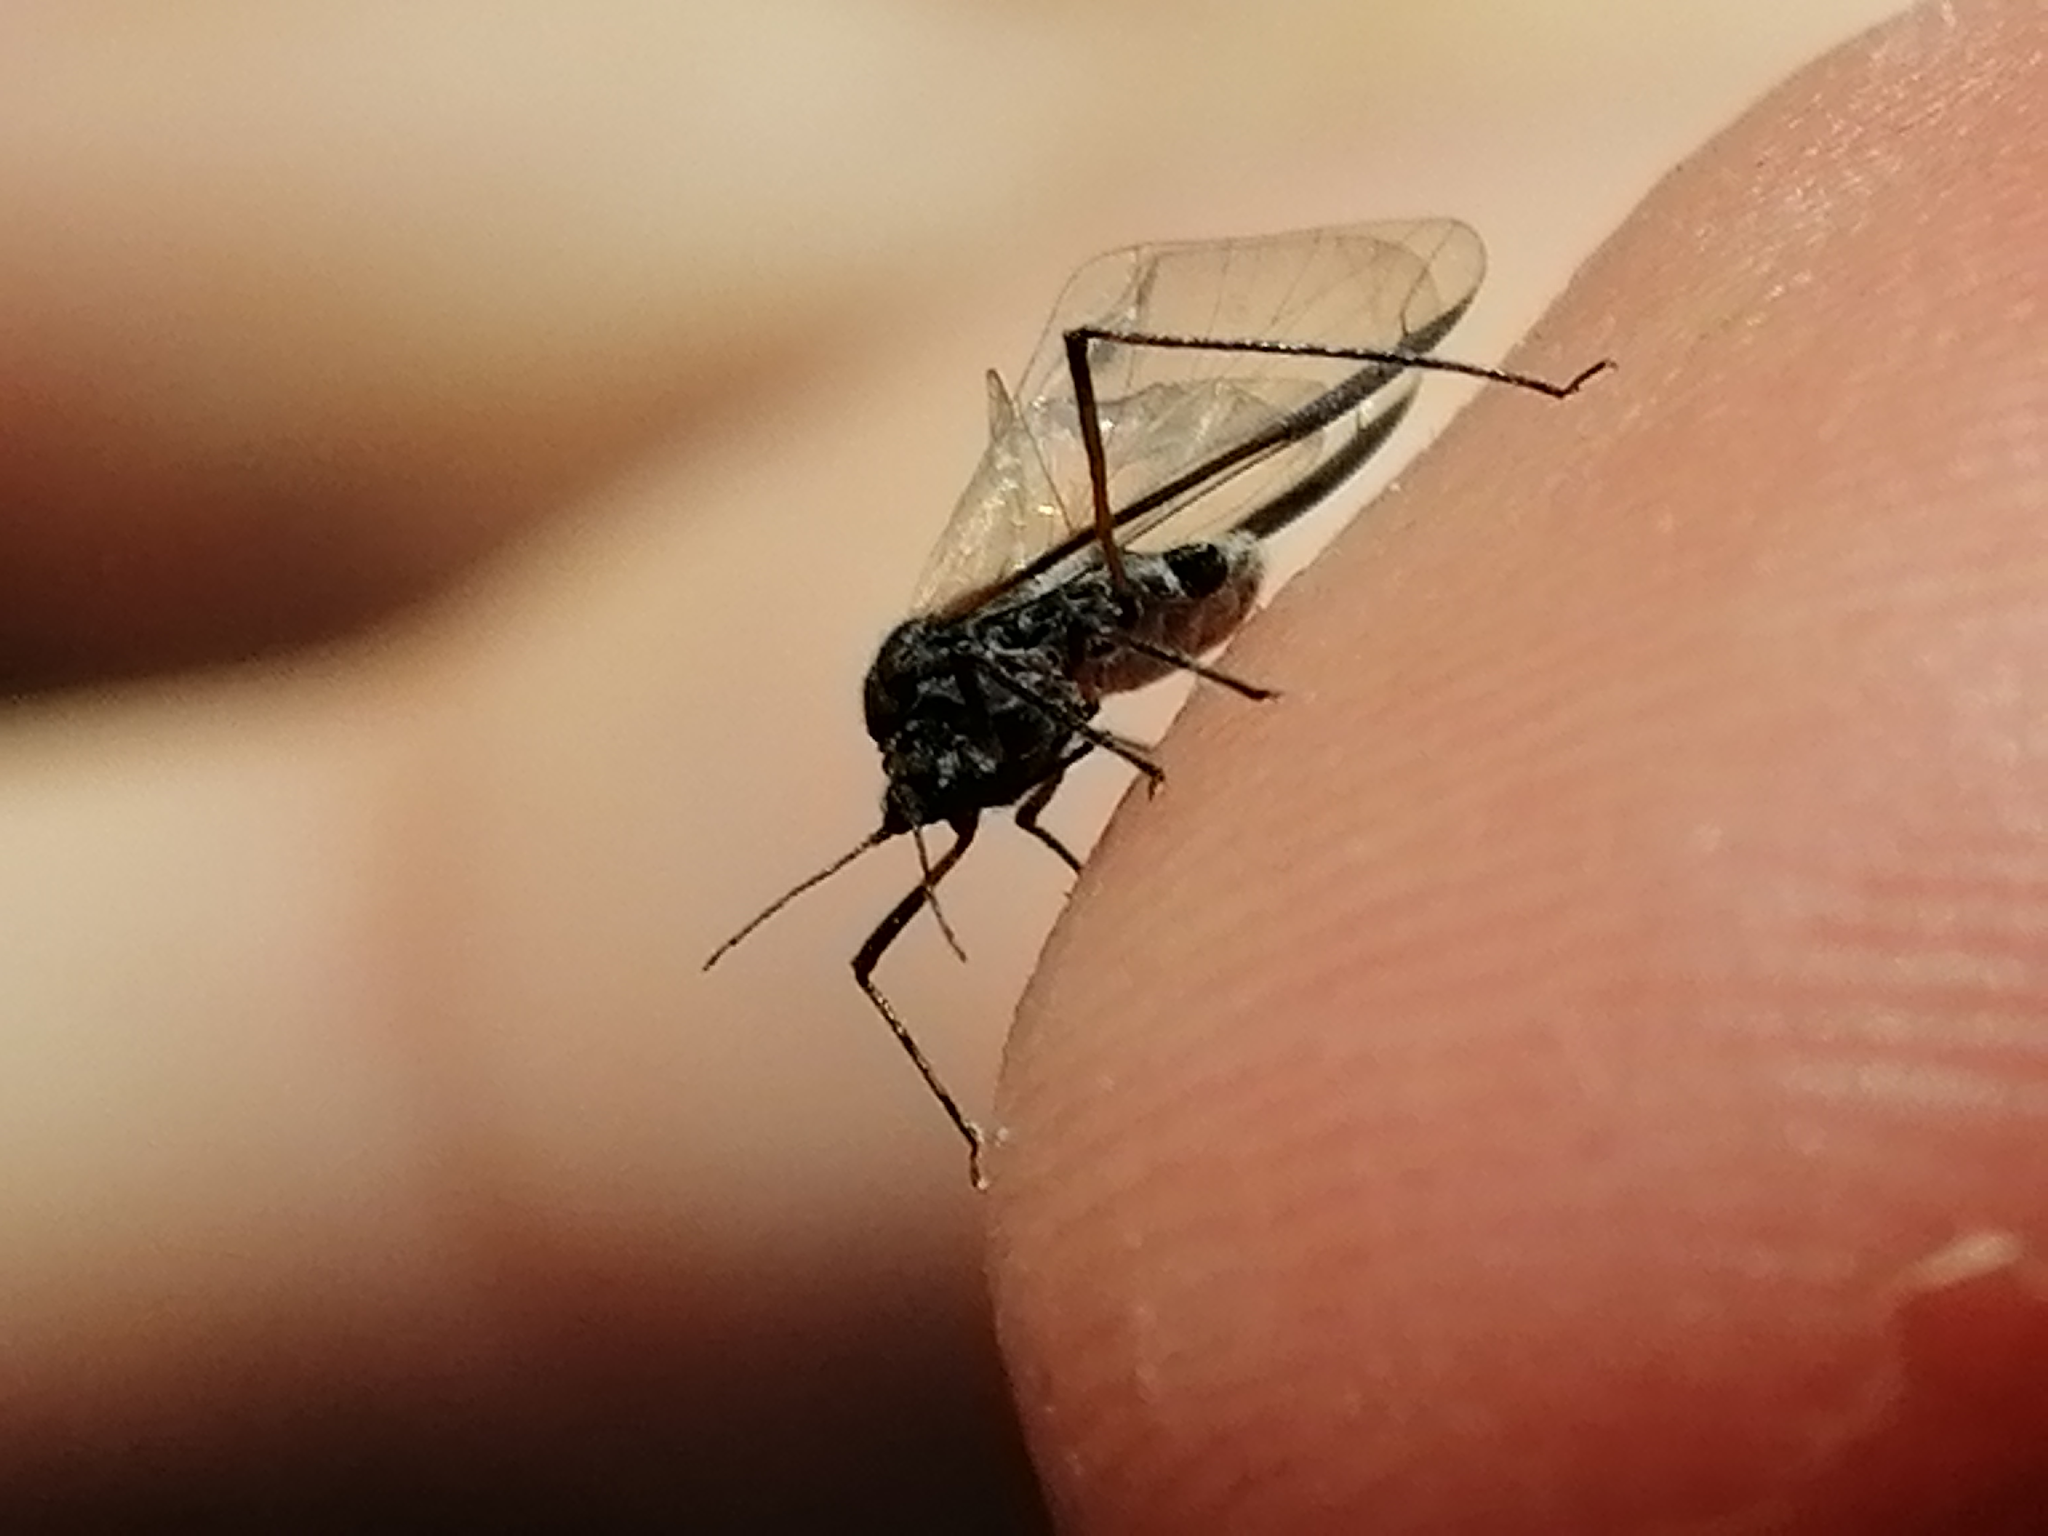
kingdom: Animalia
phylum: Arthropoda
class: Insecta
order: Hemiptera
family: Aphididae
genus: Tuberolachnus
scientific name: Tuberolachnus salignus
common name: Giant willow aphid
